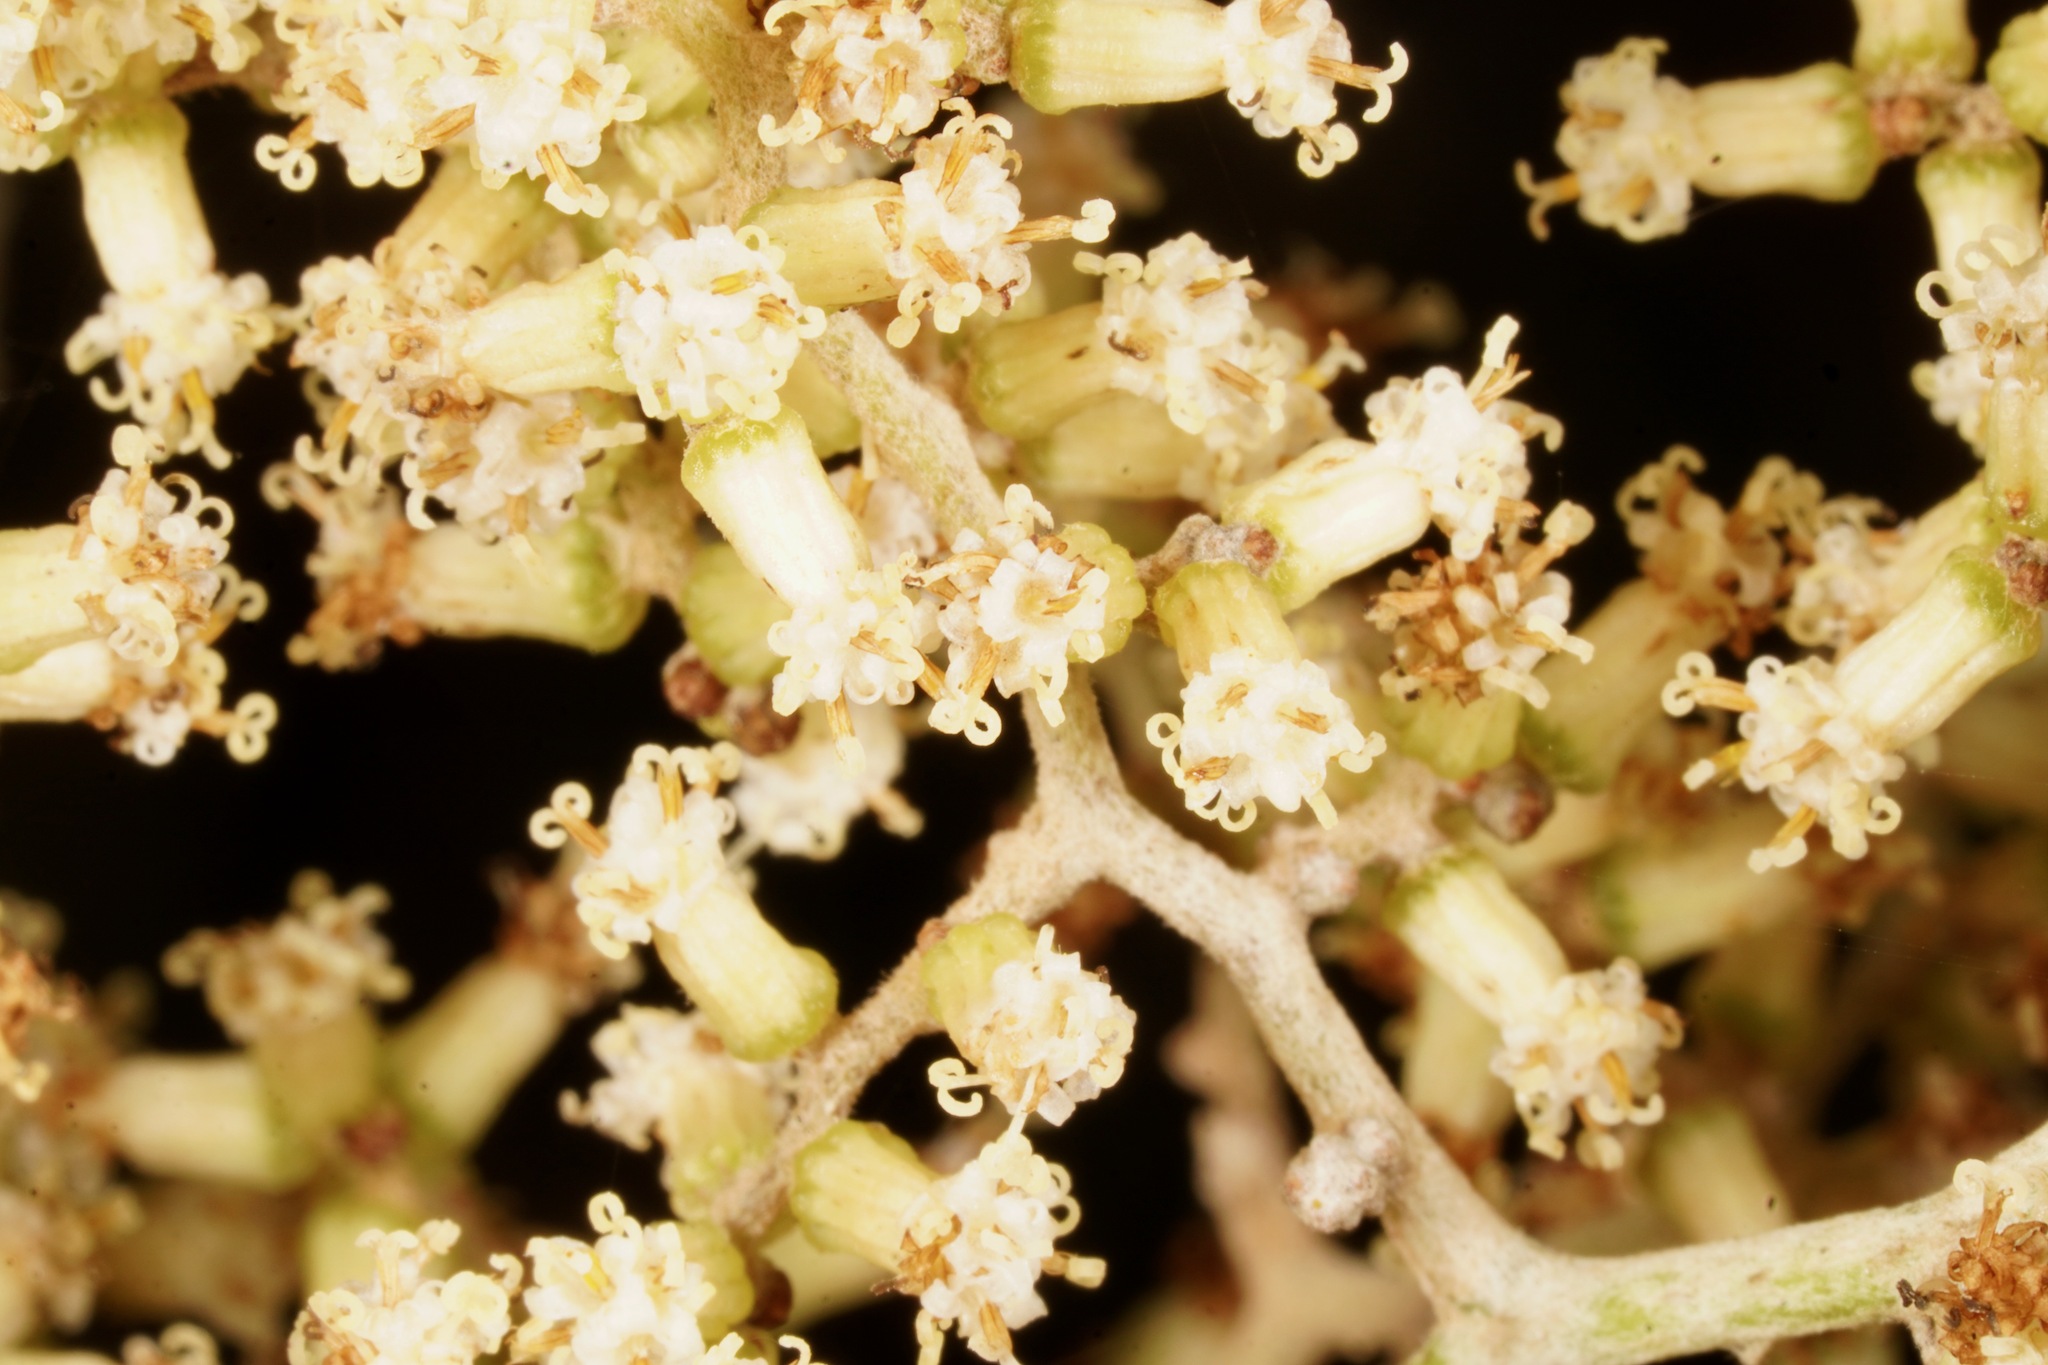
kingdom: Plantae
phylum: Tracheophyta
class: Magnoliopsida
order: Asterales
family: Asteraceae
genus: Brachyglottis
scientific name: Brachyglottis repanda
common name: Hedge ragwort
